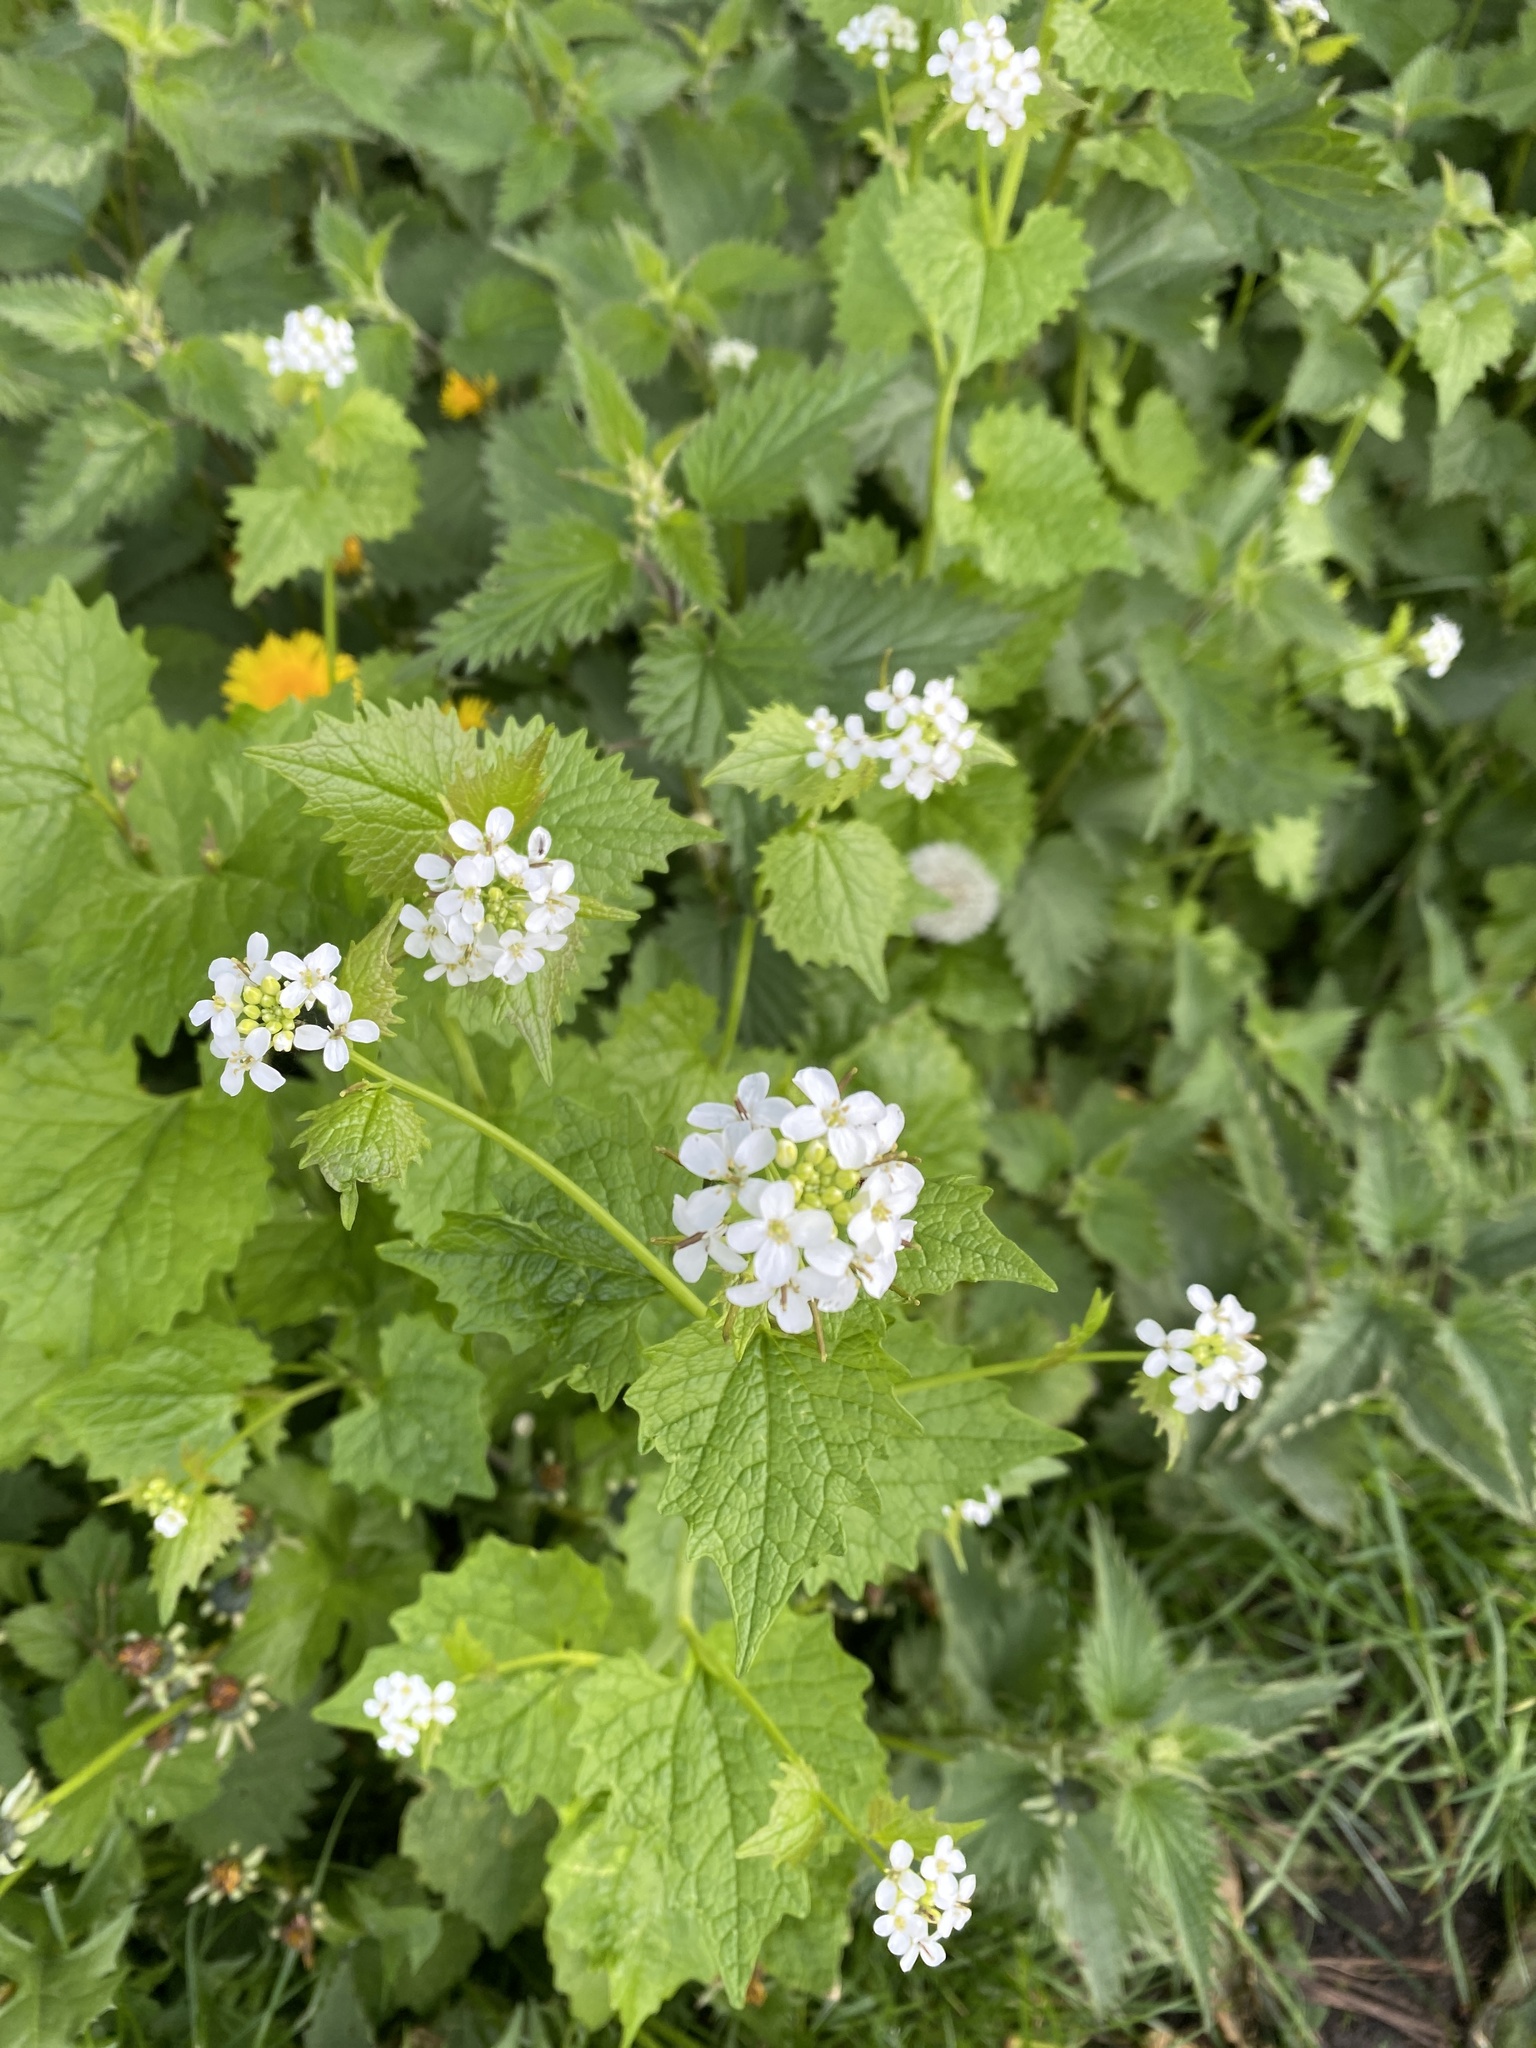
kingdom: Plantae
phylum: Tracheophyta
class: Magnoliopsida
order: Brassicales
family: Brassicaceae
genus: Alliaria
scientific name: Alliaria petiolata
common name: Garlic mustard
